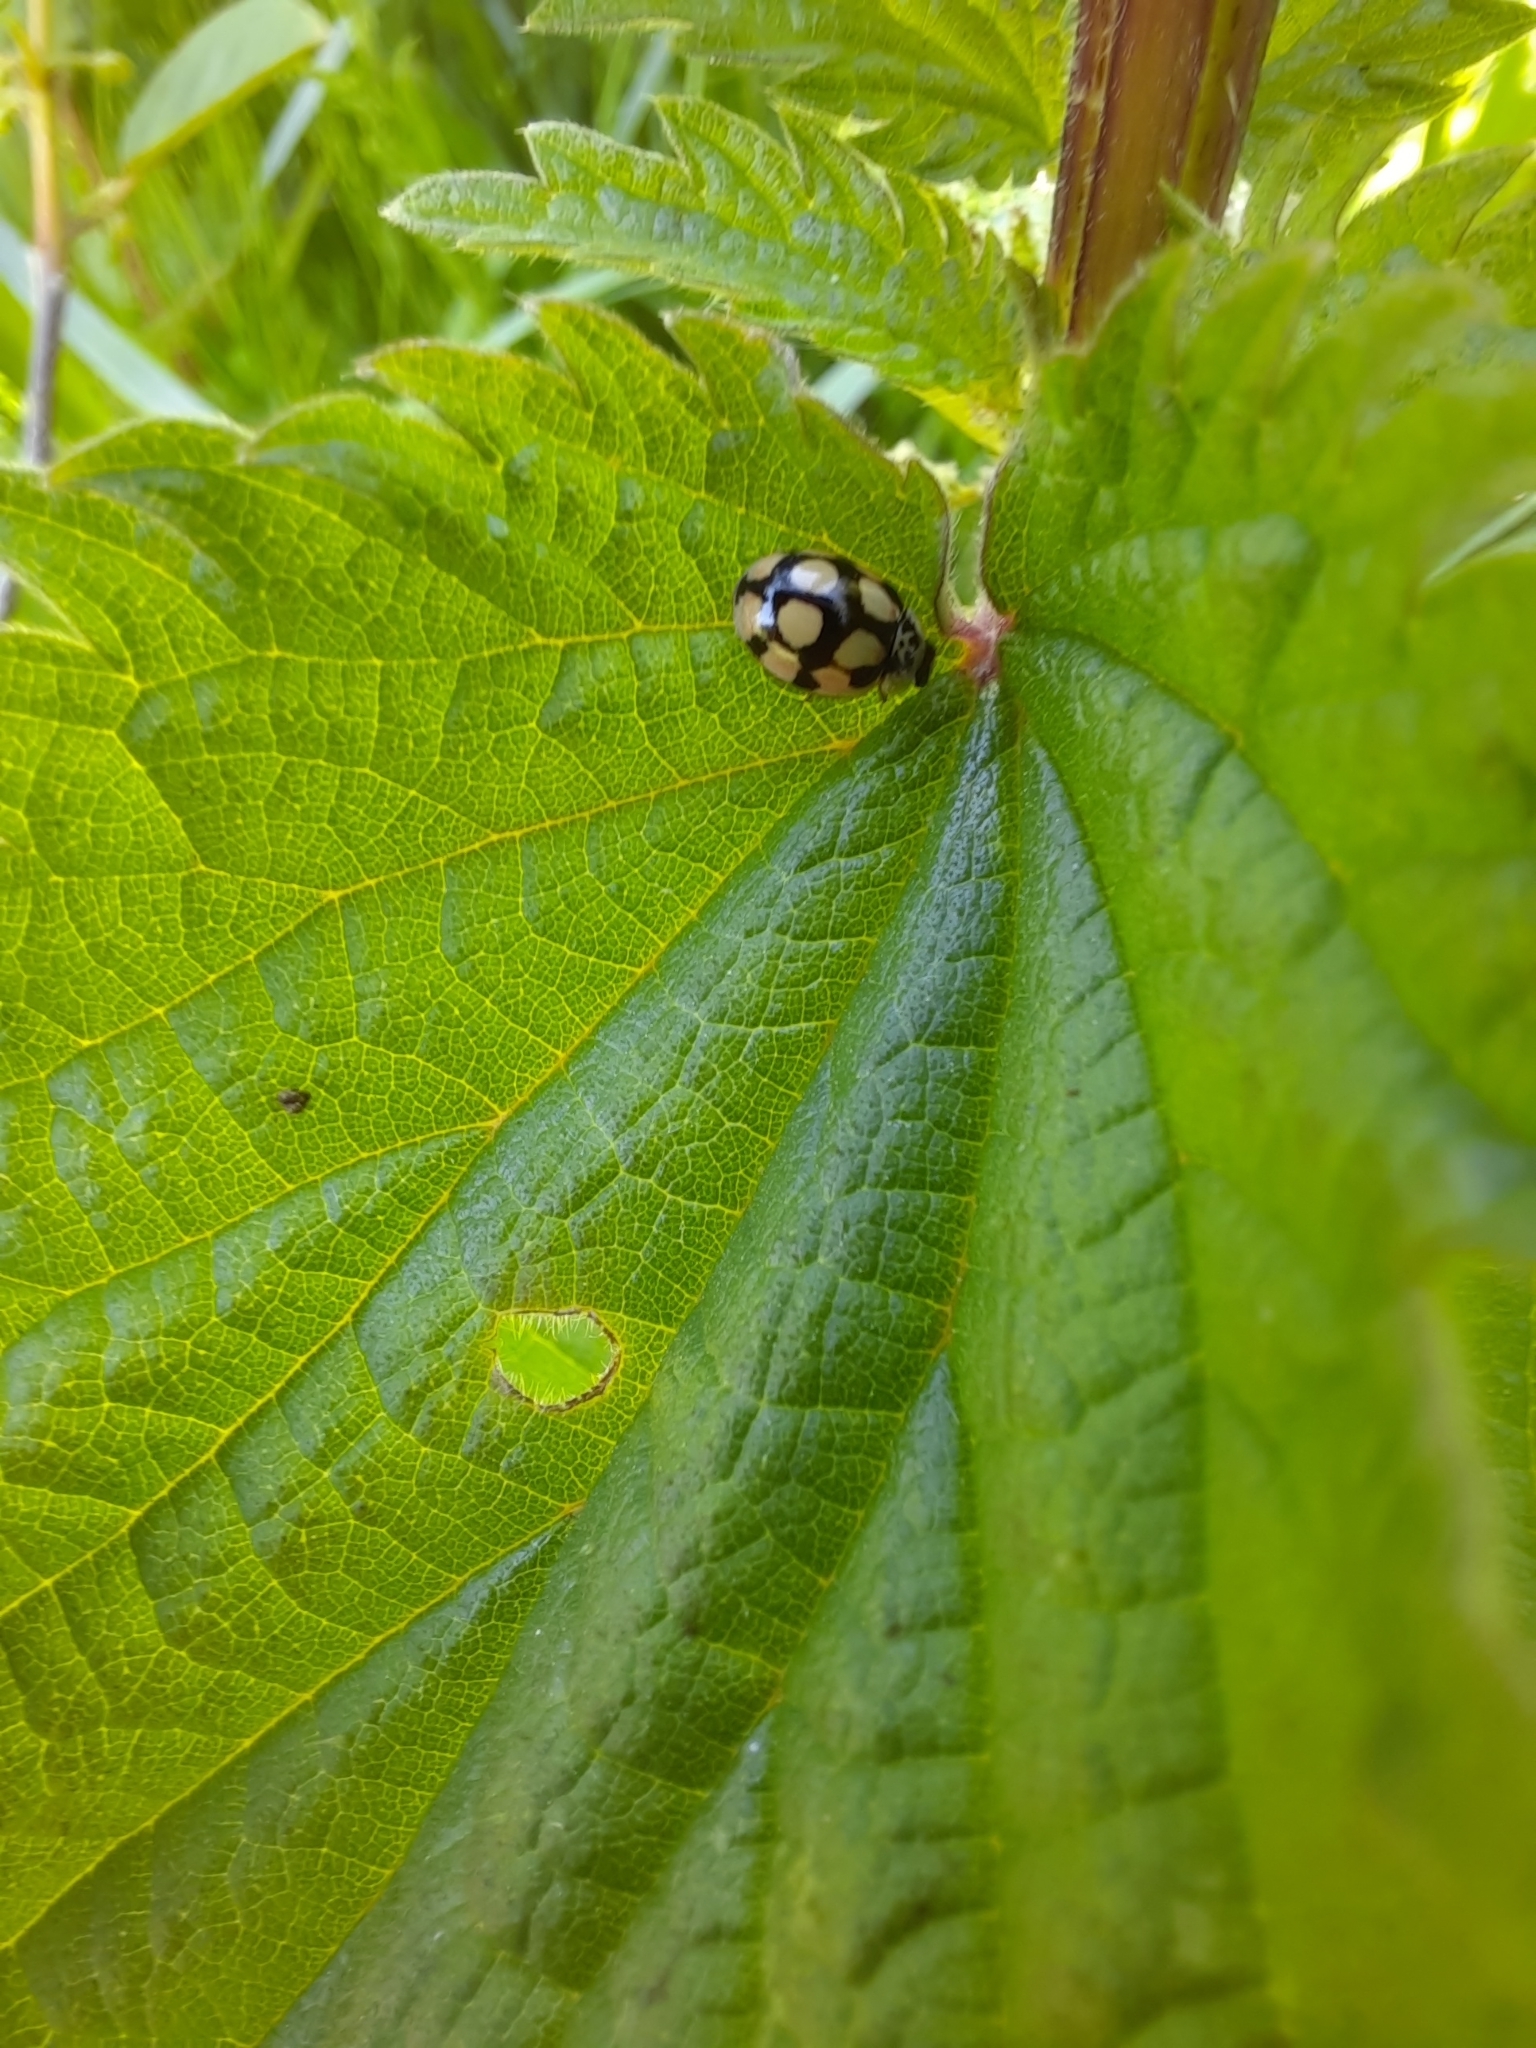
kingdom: Animalia
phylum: Arthropoda
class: Insecta
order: Coleoptera
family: Coccinellidae
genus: Adalia
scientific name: Adalia decempunctata
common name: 10-spot ladybird
